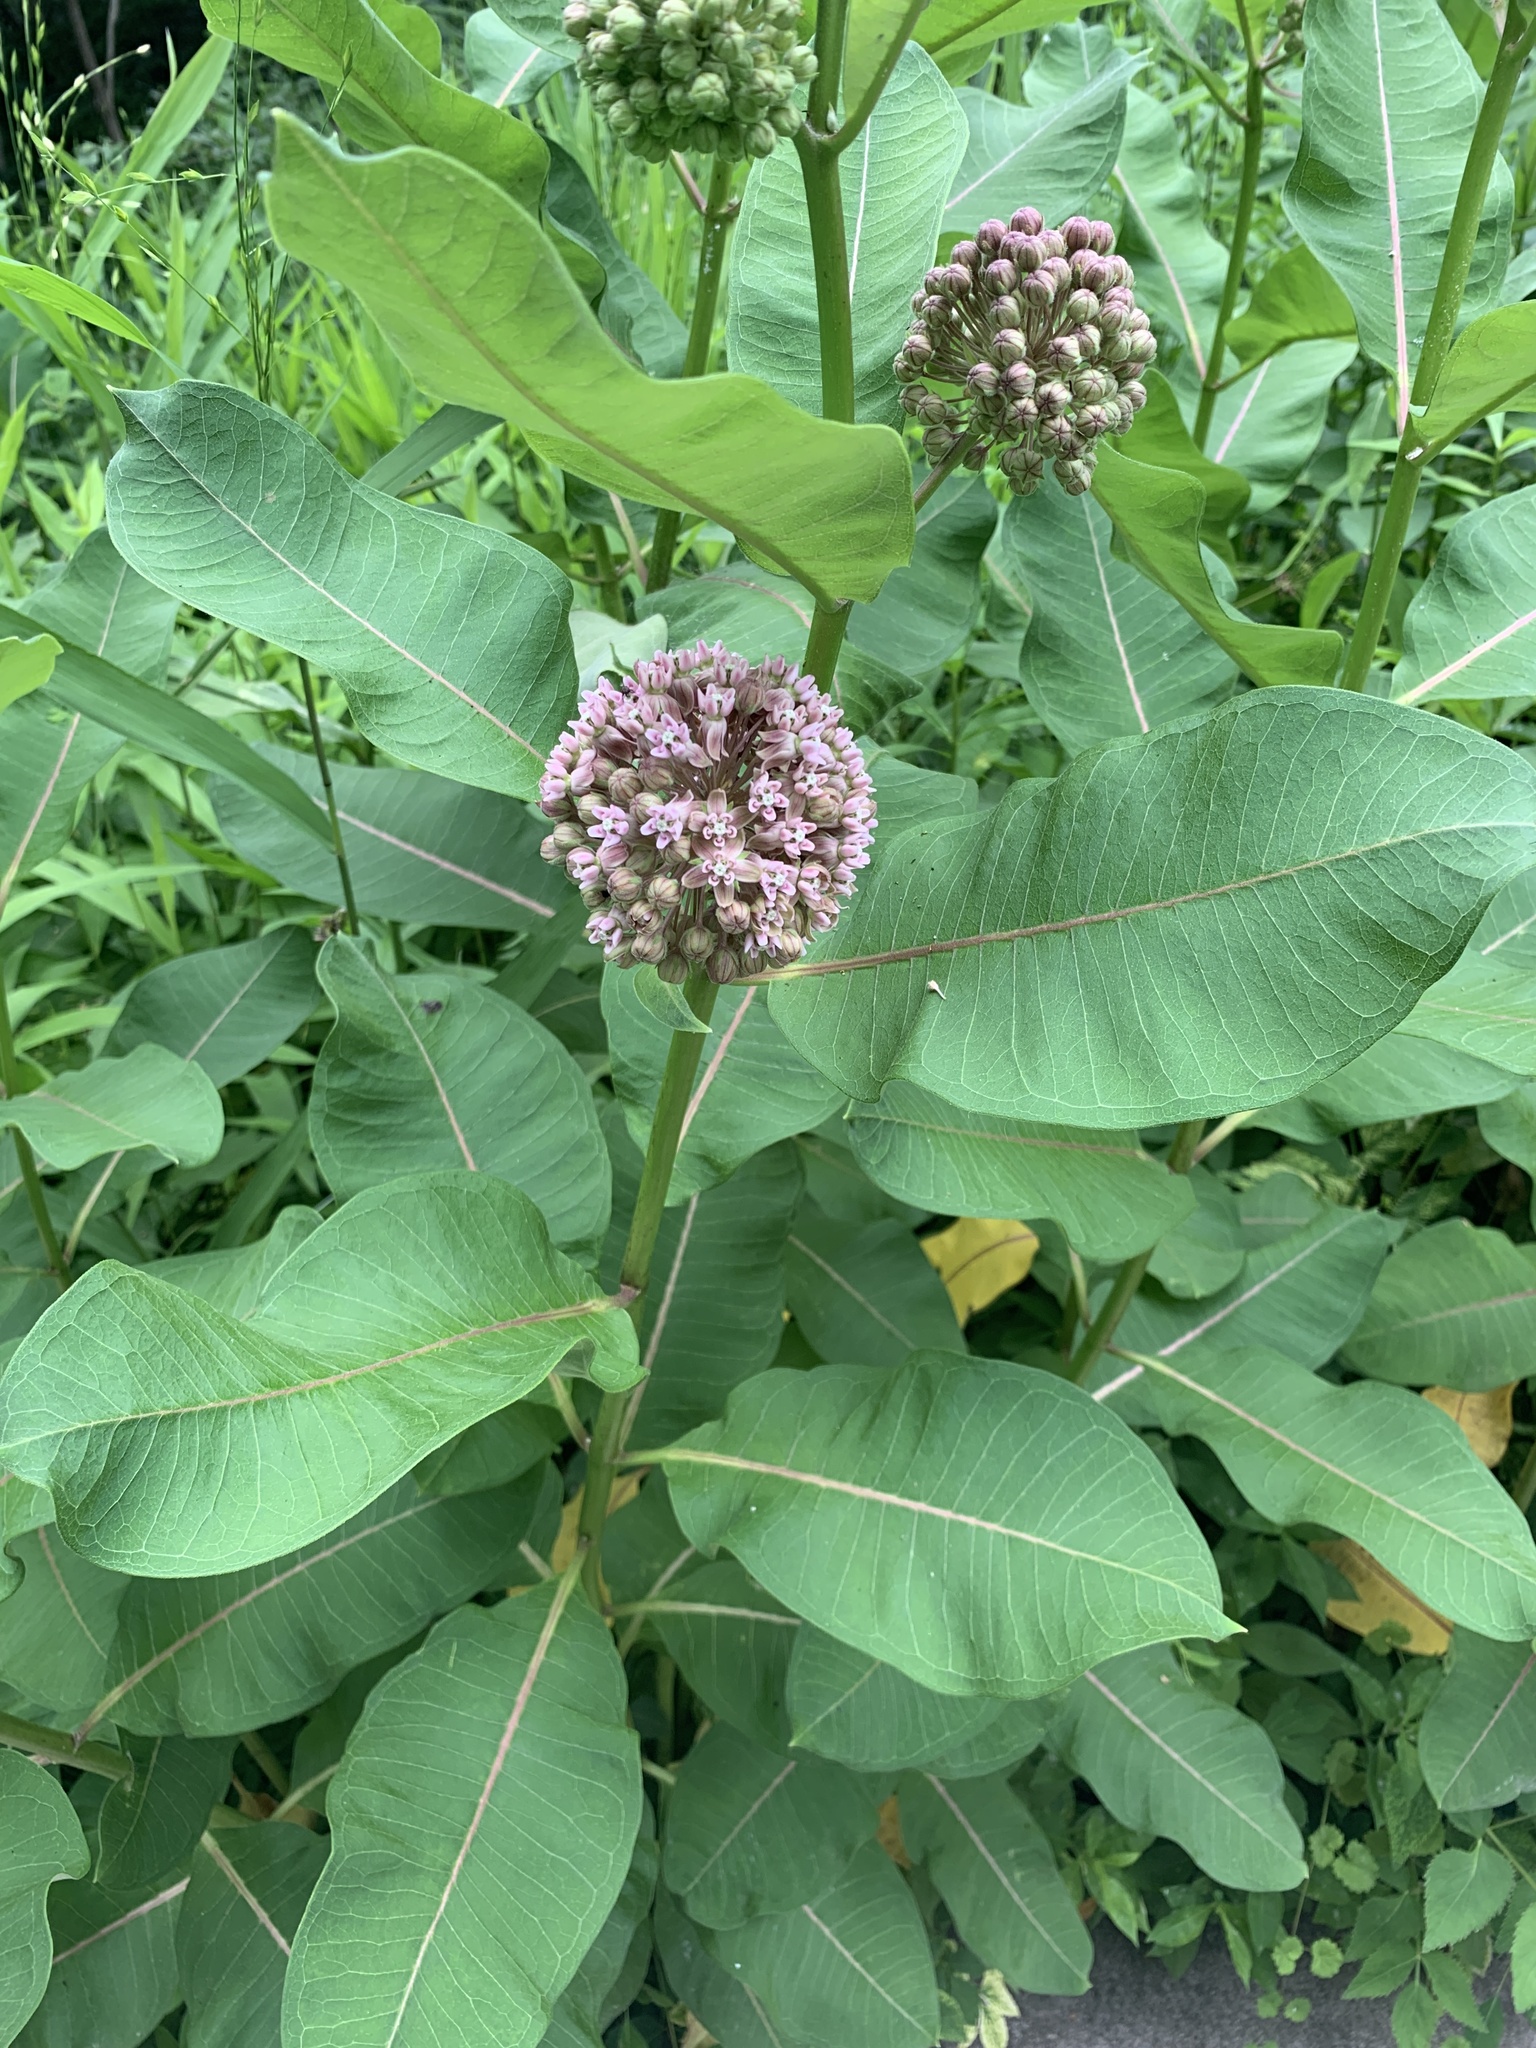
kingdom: Plantae
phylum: Tracheophyta
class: Magnoliopsida
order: Gentianales
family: Apocynaceae
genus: Asclepias
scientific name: Asclepias syriaca
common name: Common milkweed
